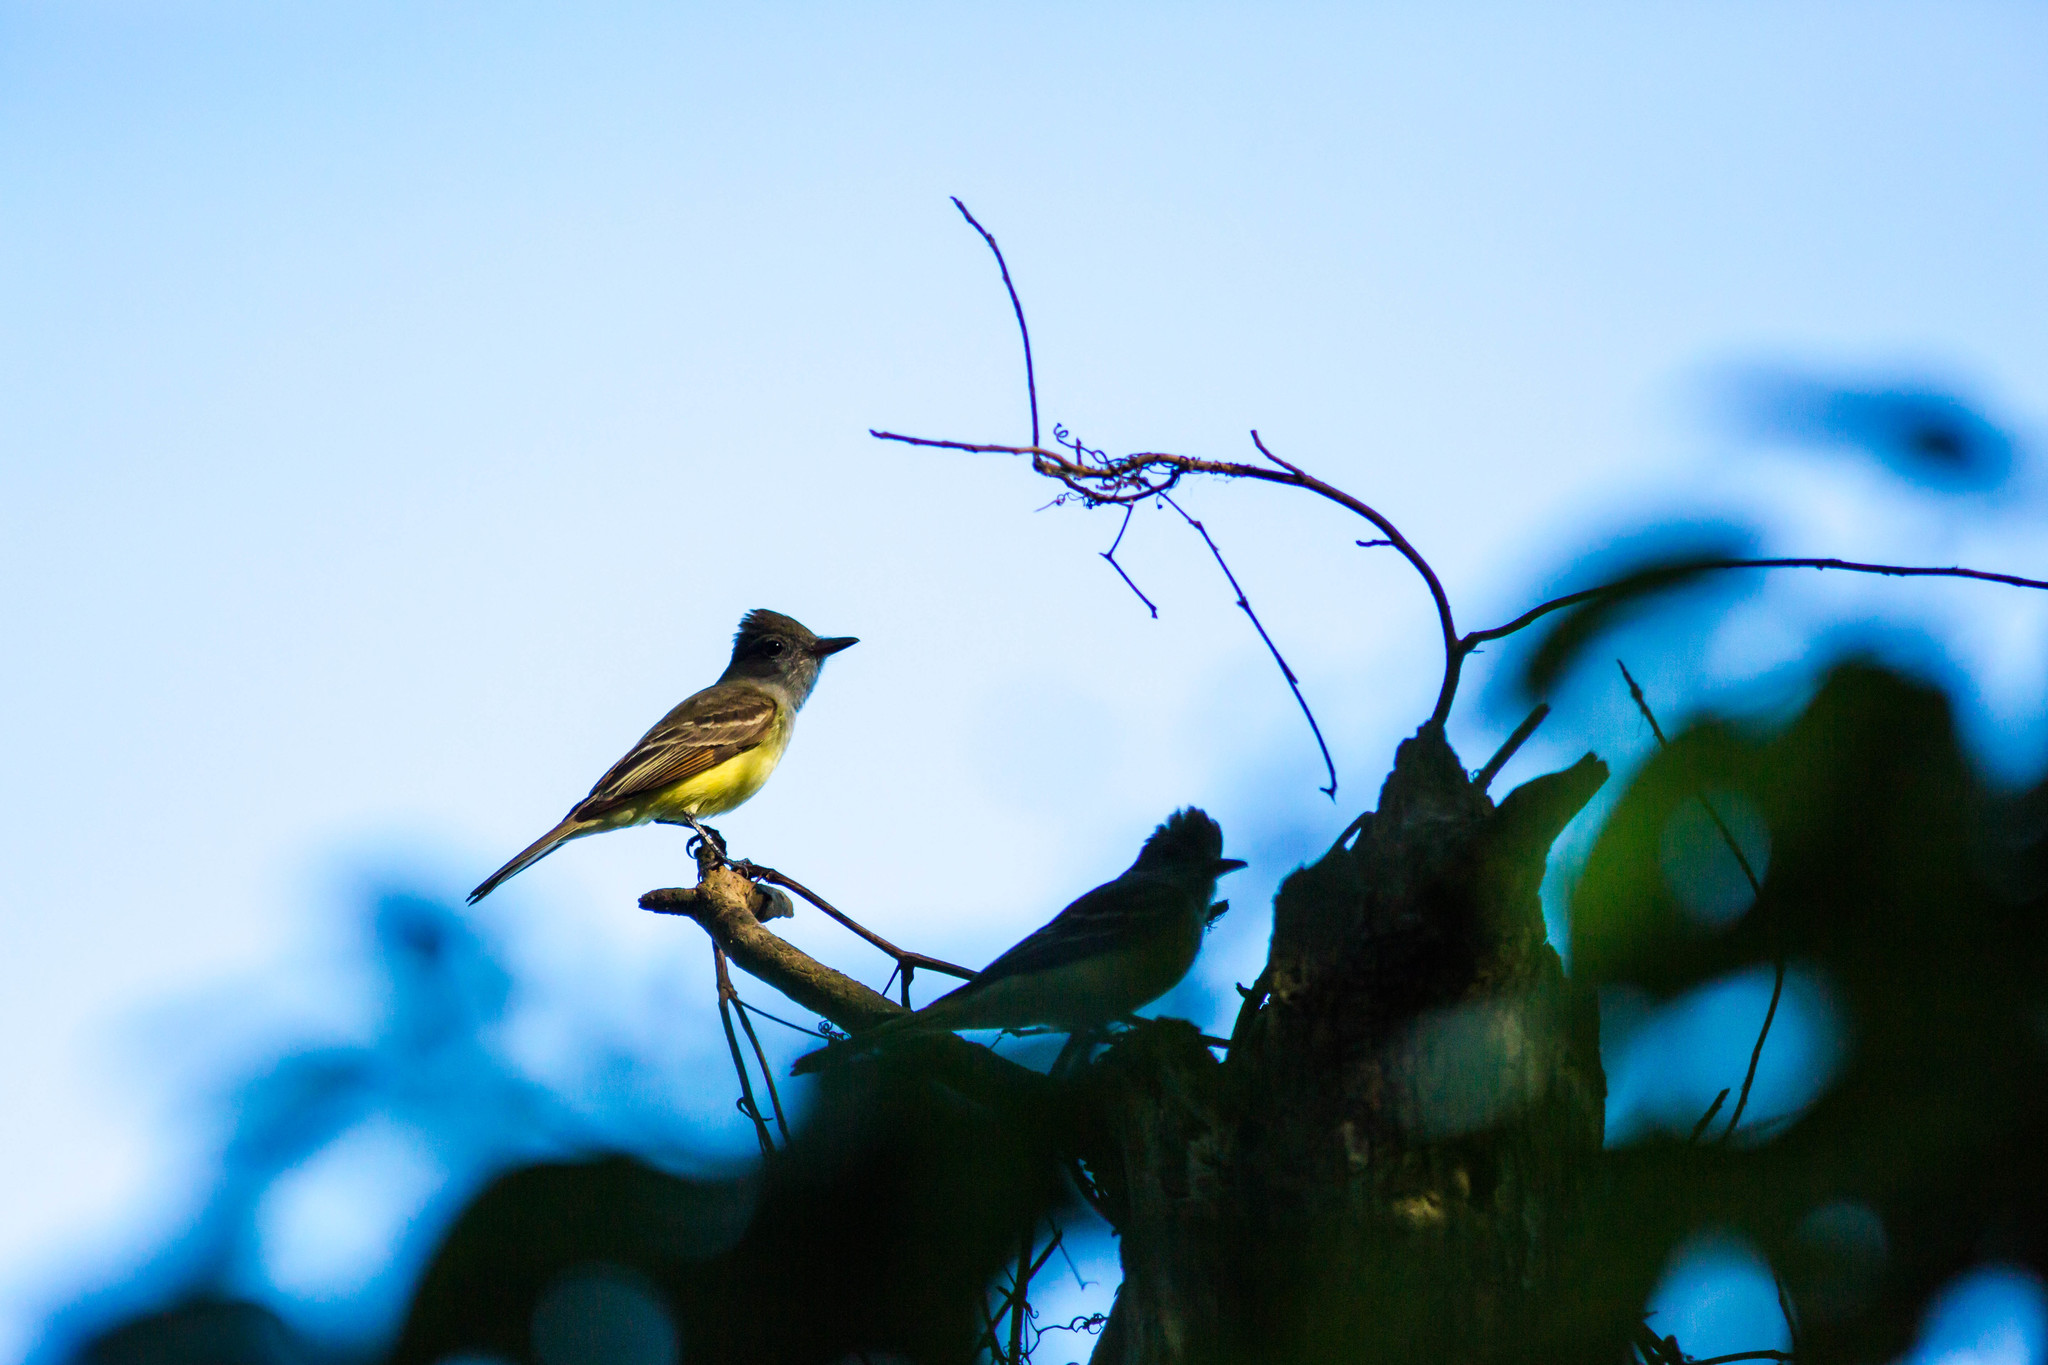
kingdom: Animalia
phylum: Chordata
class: Aves
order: Passeriformes
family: Tyrannidae
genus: Myiarchus
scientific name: Myiarchus crinitus
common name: Great crested flycatcher
